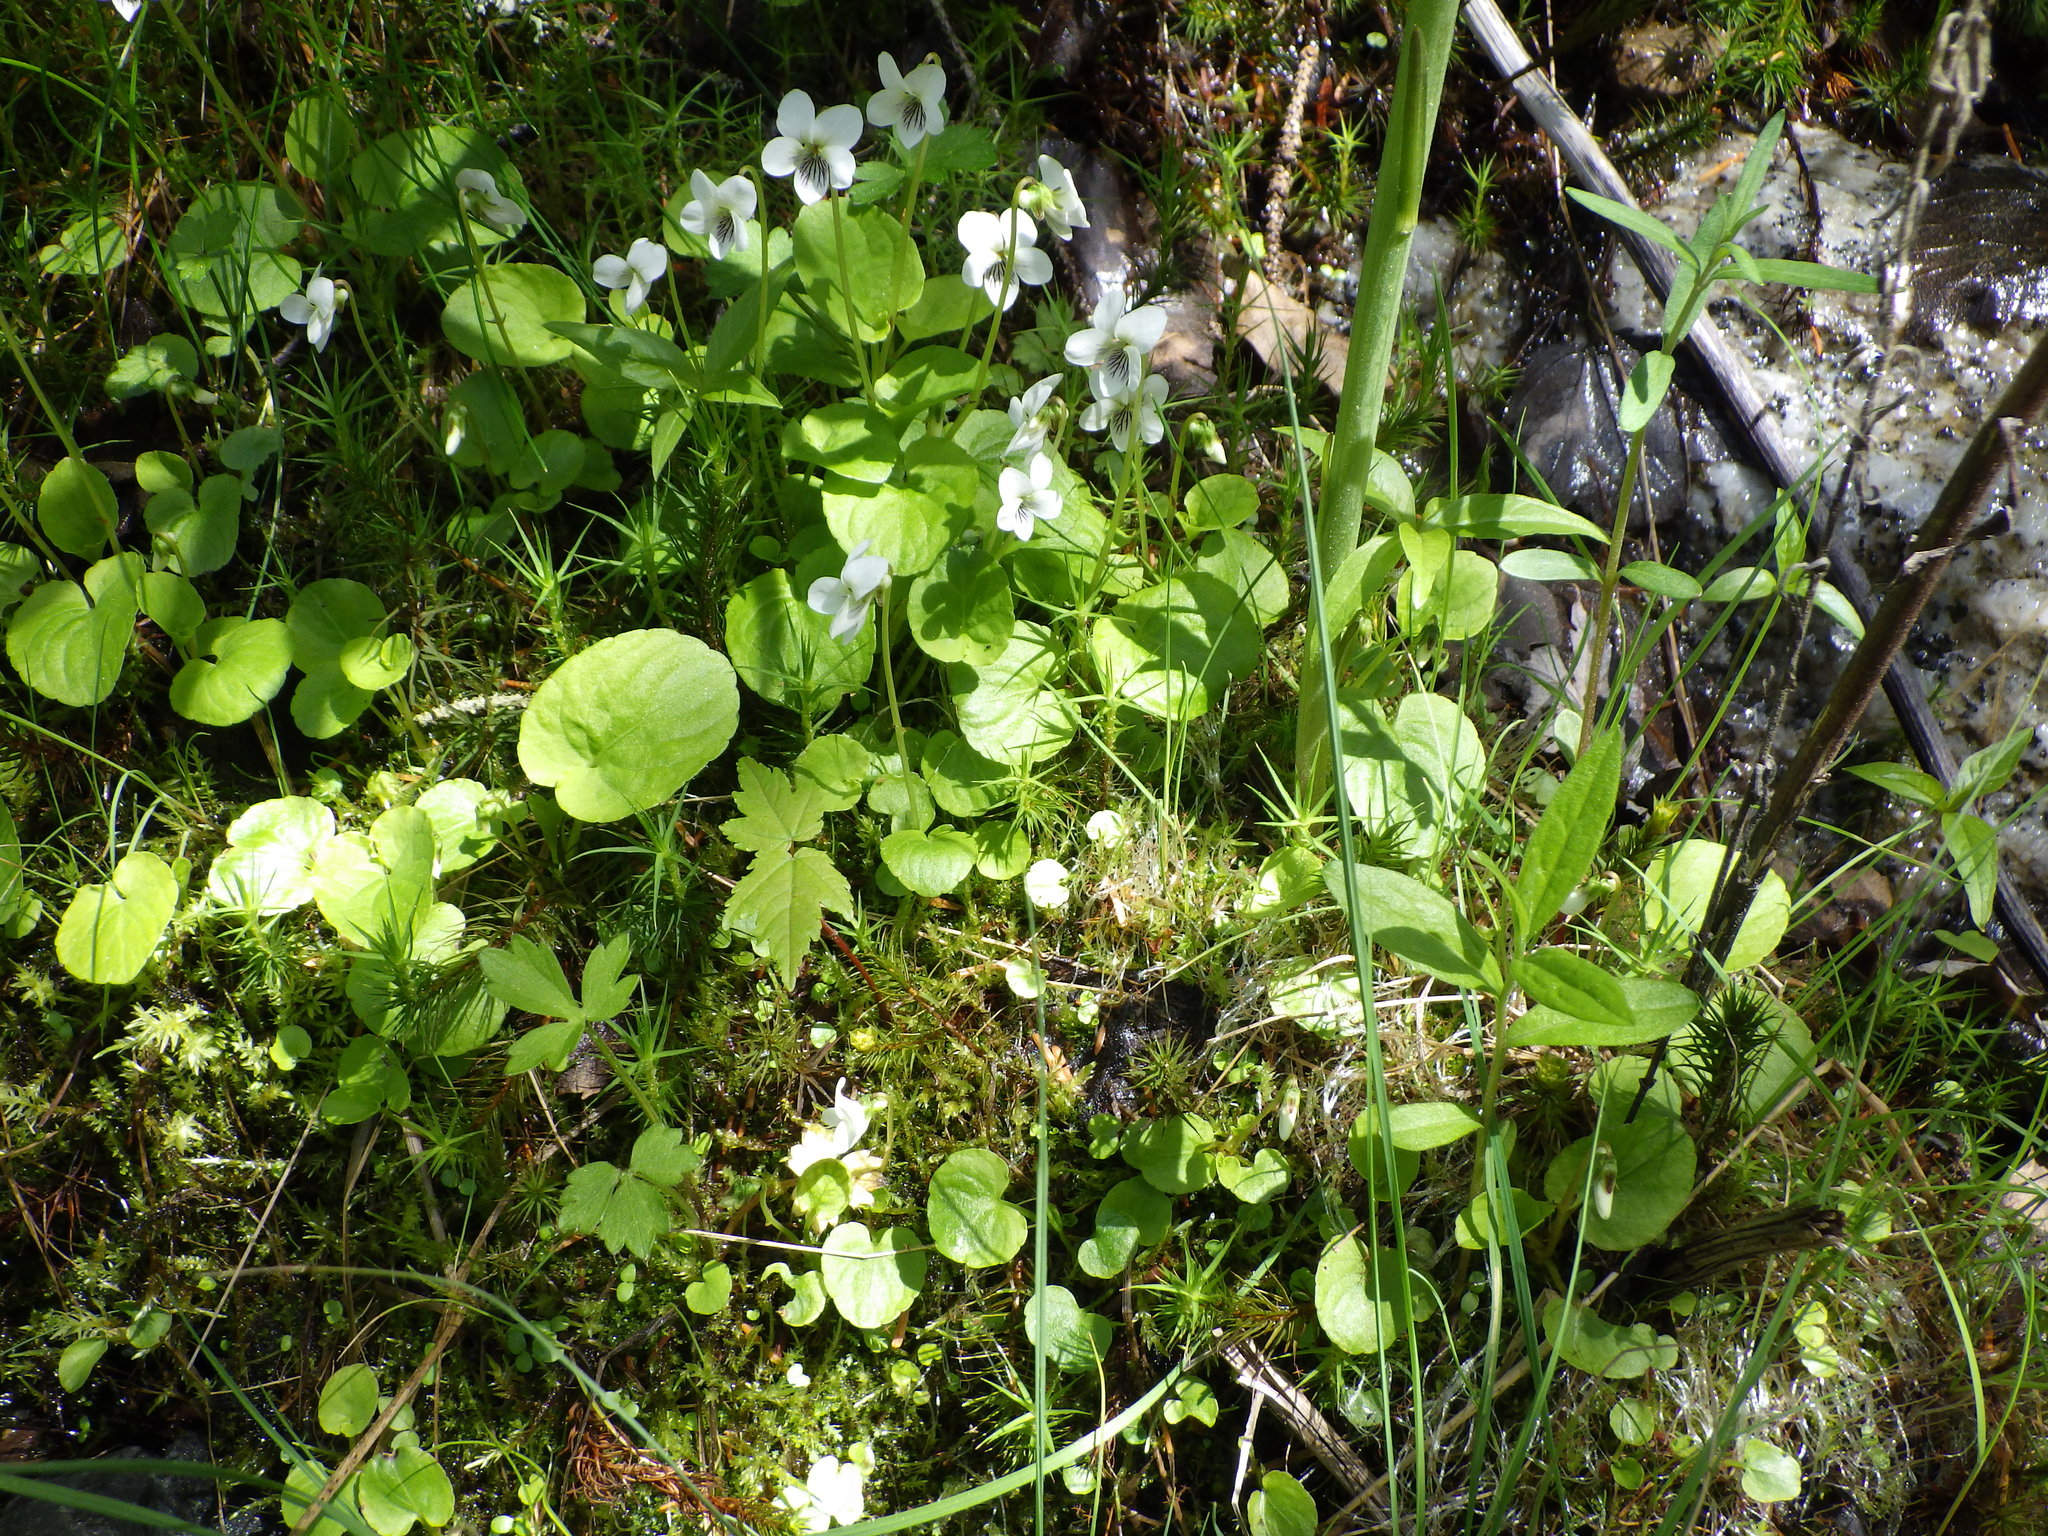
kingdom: Plantae
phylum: Tracheophyta
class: Magnoliopsida
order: Malpighiales
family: Violaceae
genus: Viola
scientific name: Viola minuscula
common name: Northern white violet
